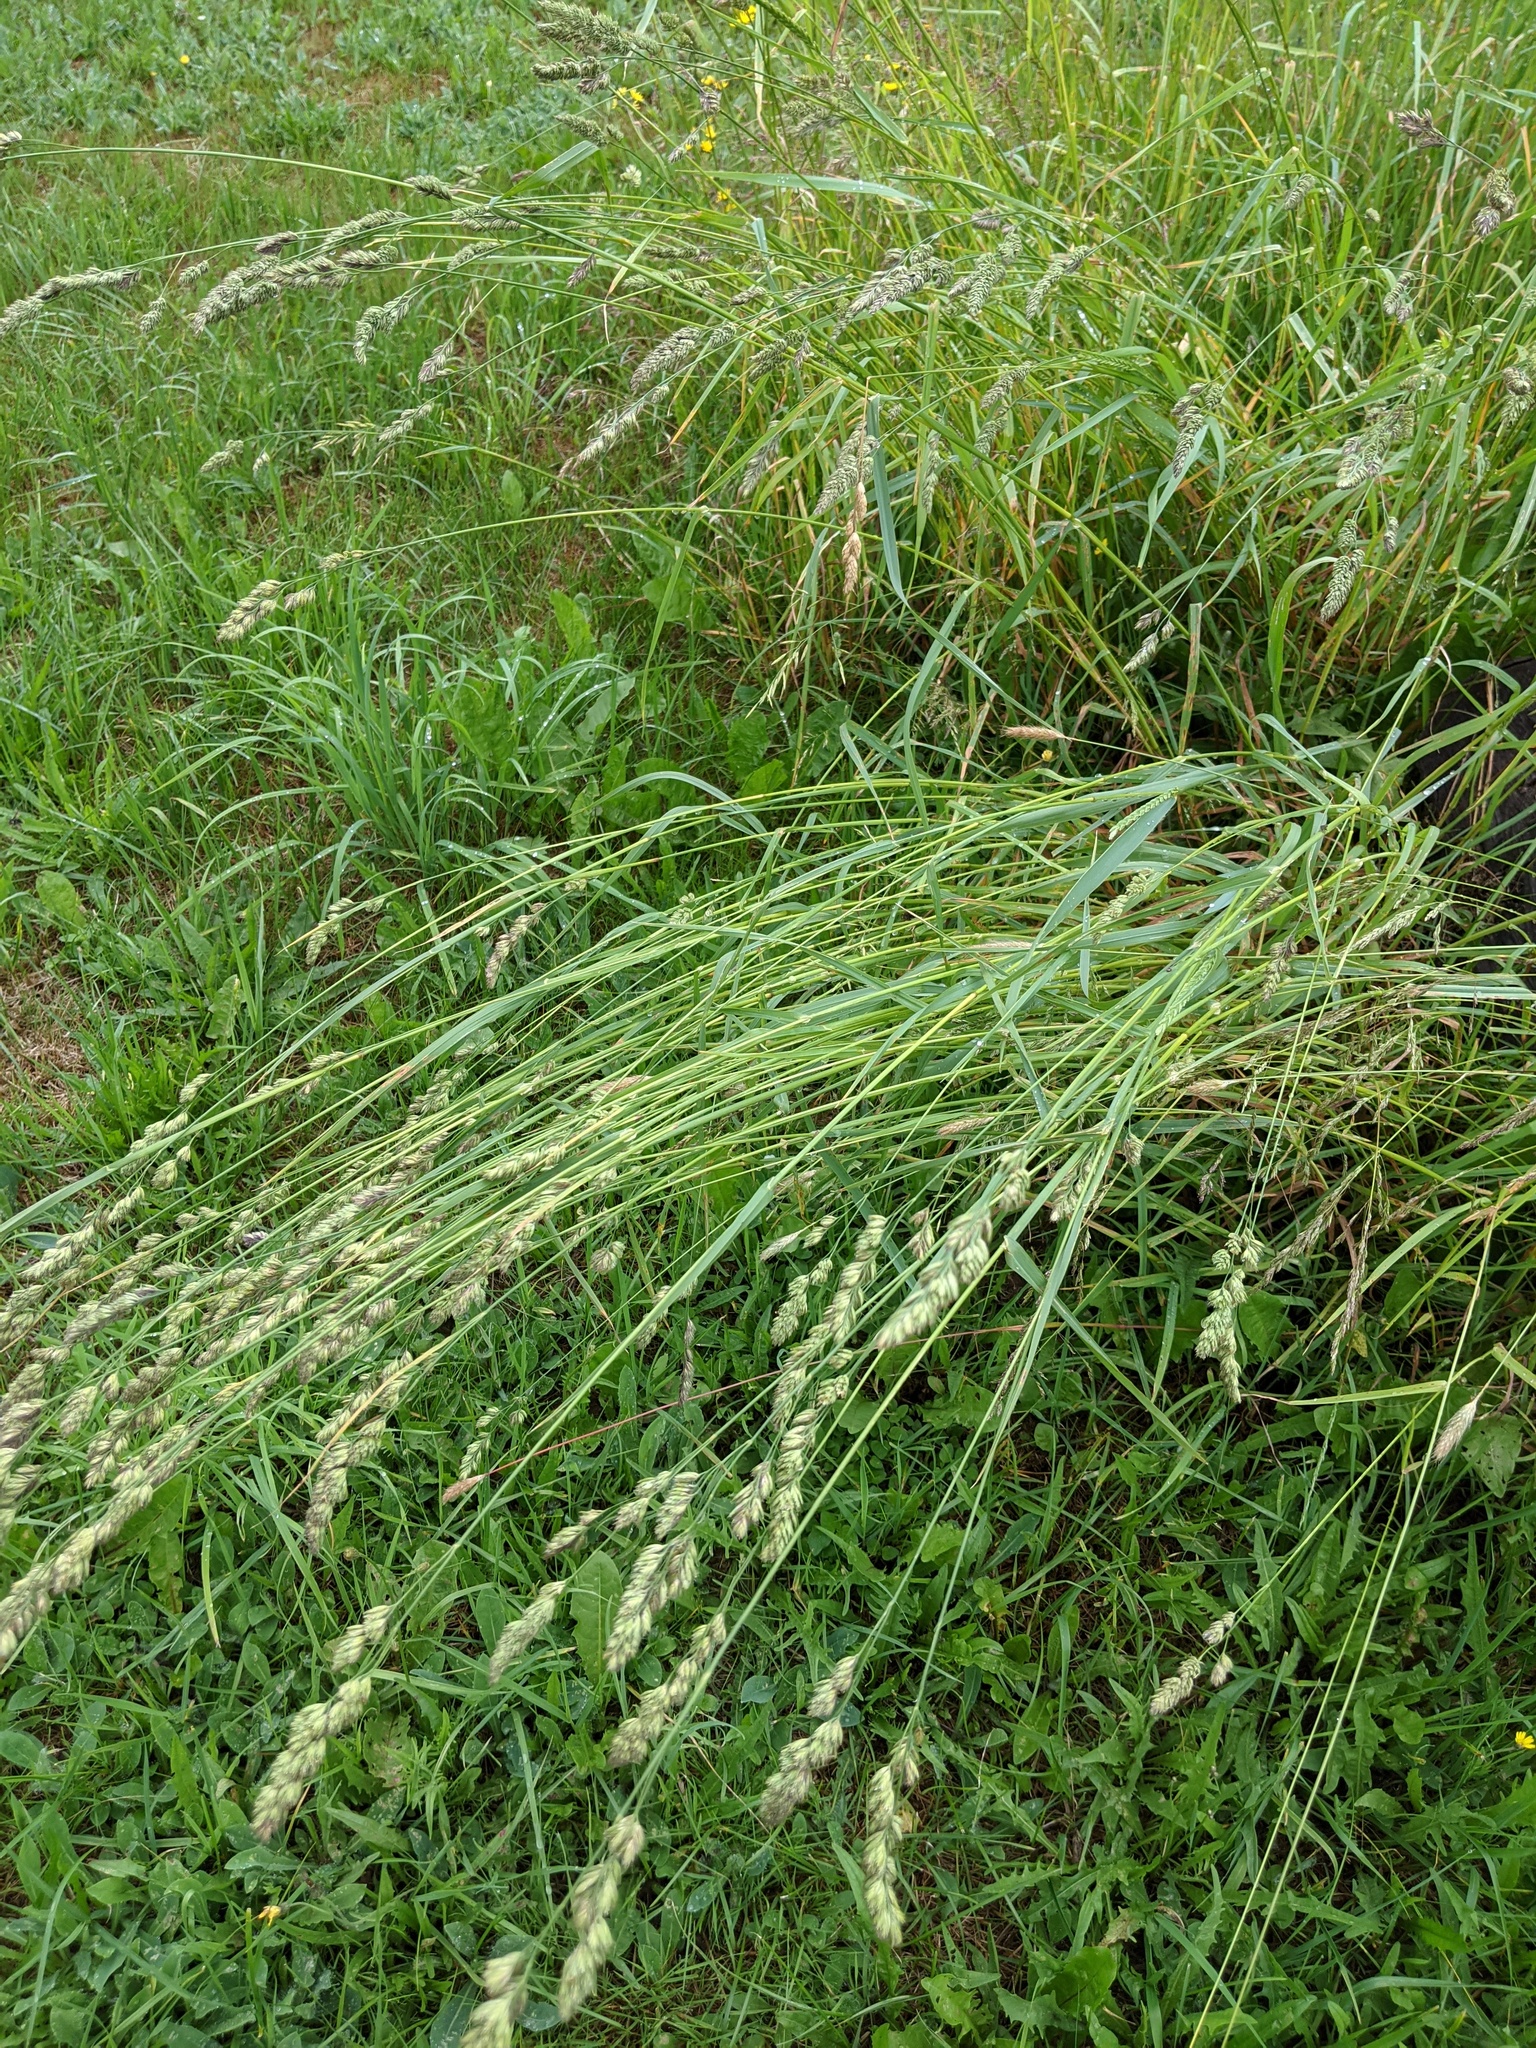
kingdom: Plantae
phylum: Tracheophyta
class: Liliopsida
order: Poales
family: Poaceae
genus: Dactylis
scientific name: Dactylis glomerata
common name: Orchardgrass
